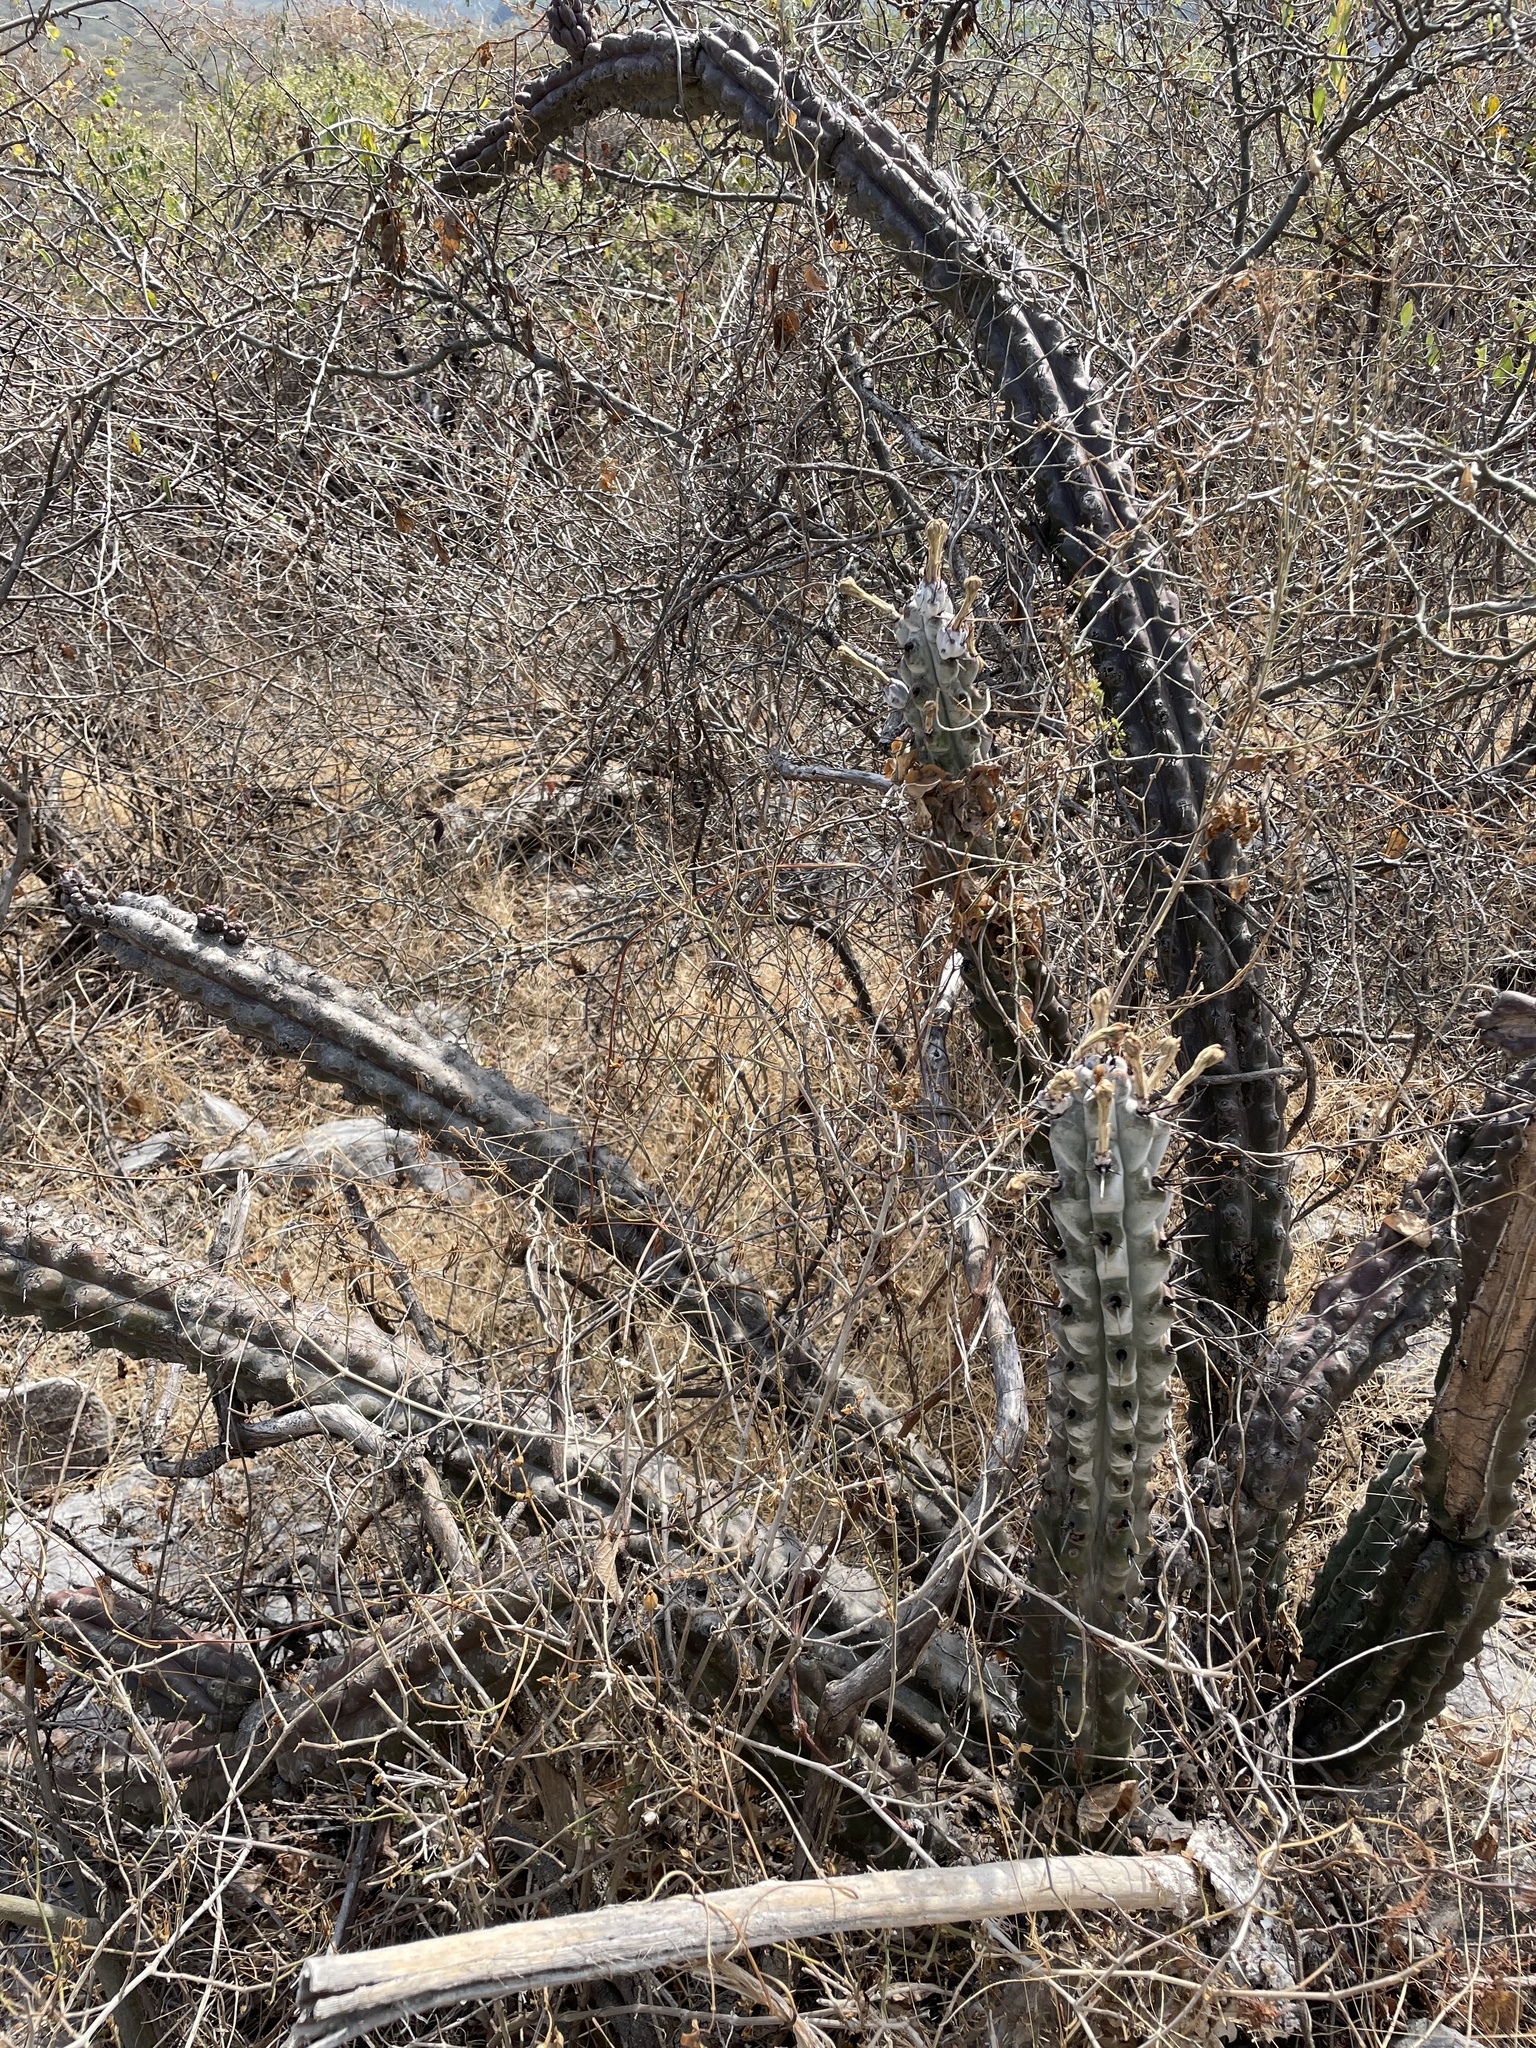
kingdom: Plantae
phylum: Tracheophyta
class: Magnoliopsida
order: Caryophyllales
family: Cactaceae
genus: Stenocereus
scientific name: Stenocereus beneckei
